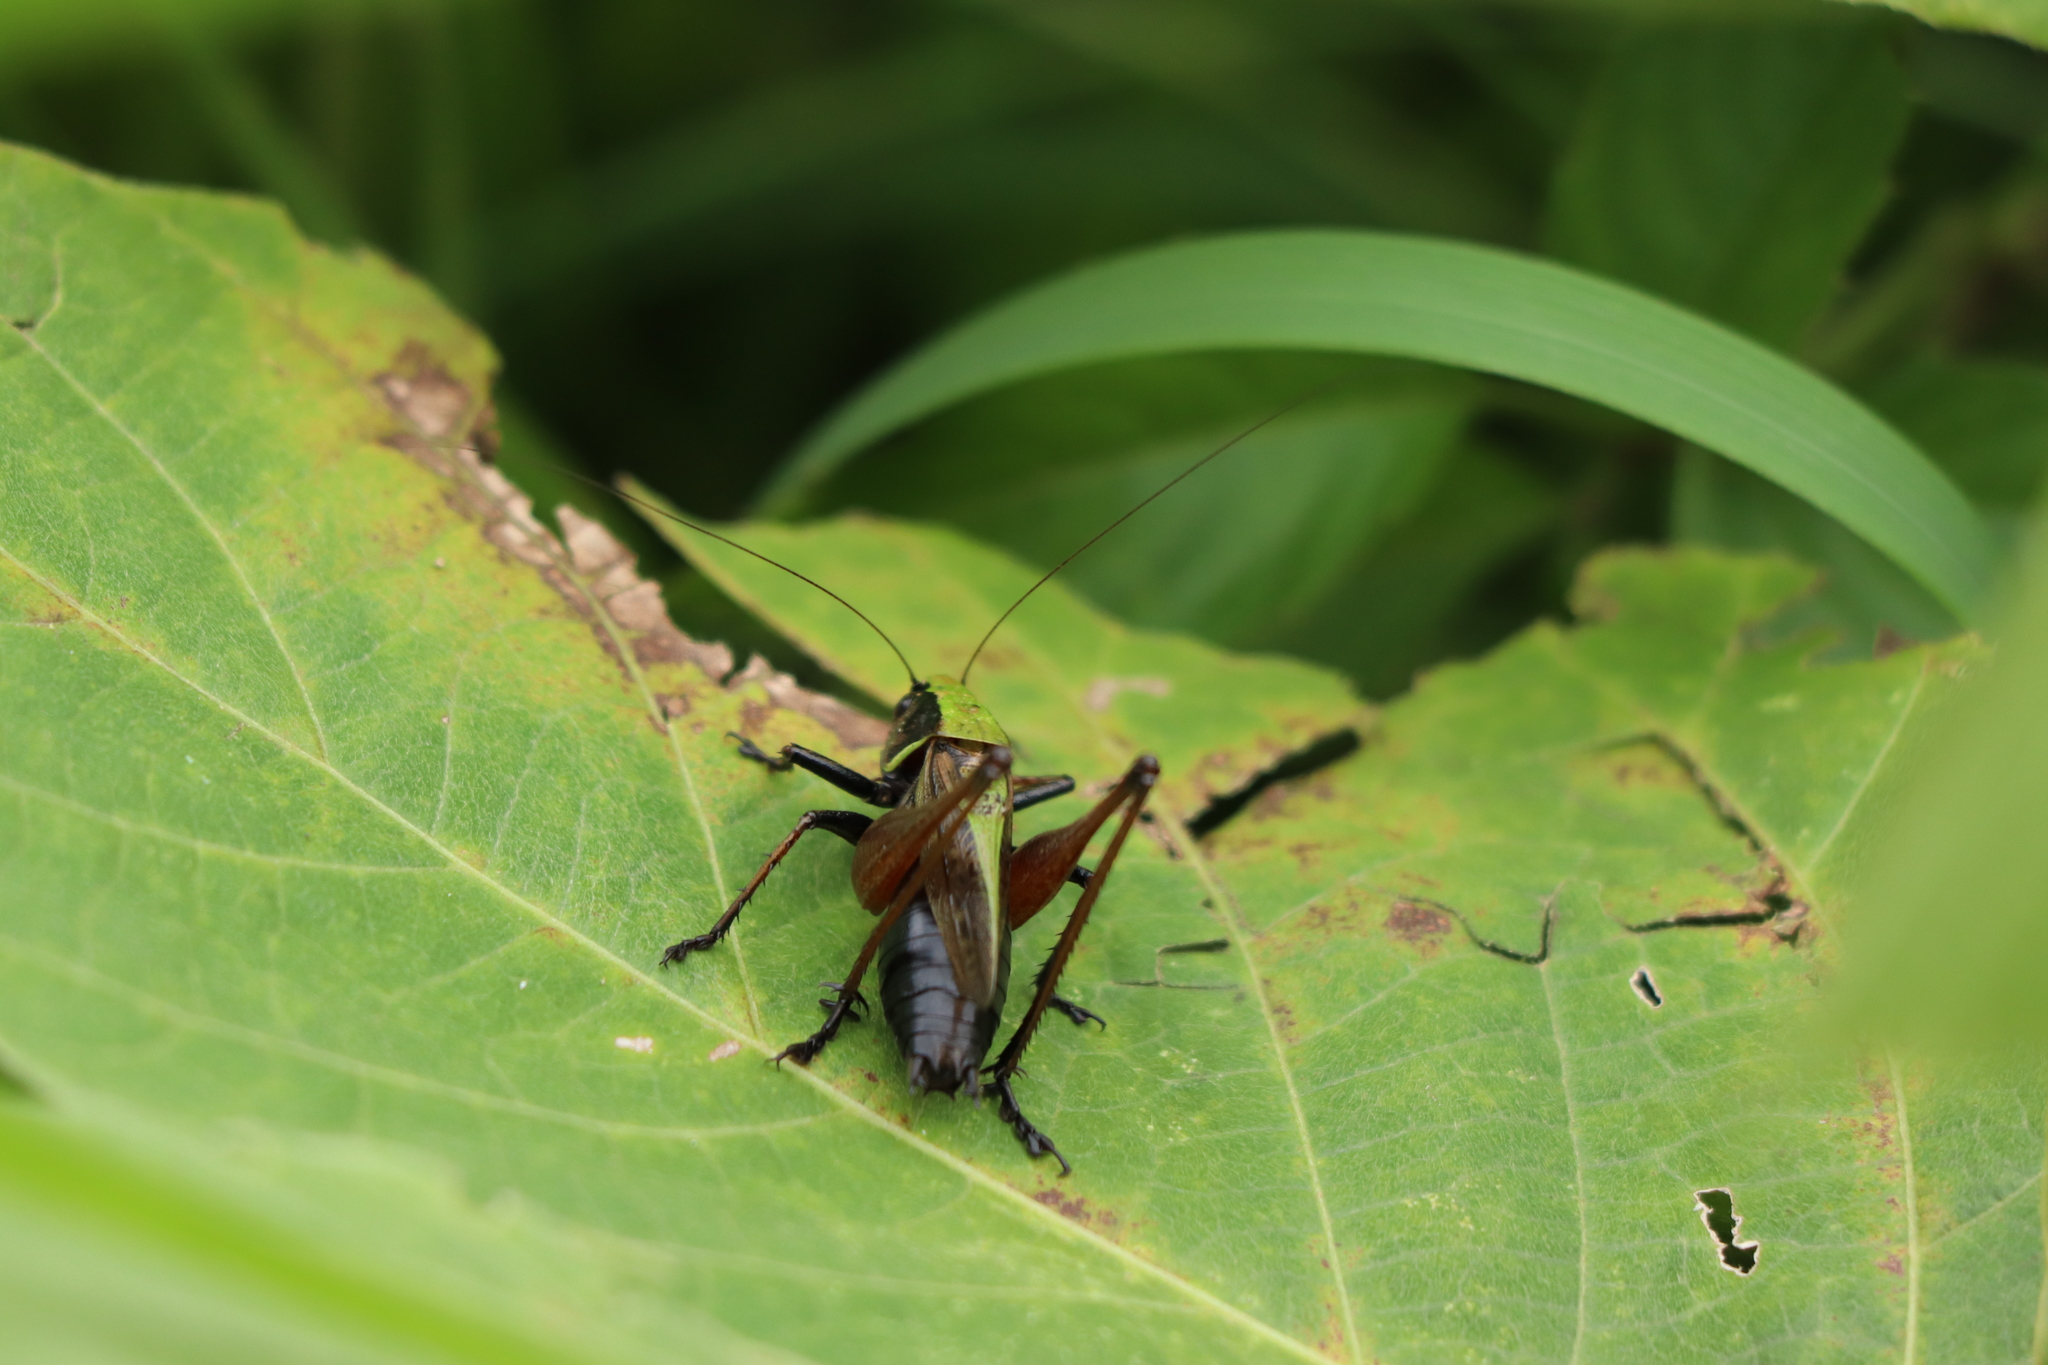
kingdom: Animalia
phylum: Arthropoda
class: Insecta
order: Orthoptera
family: Tettigoniidae
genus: Eobiana
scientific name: Eobiana engelhardti
